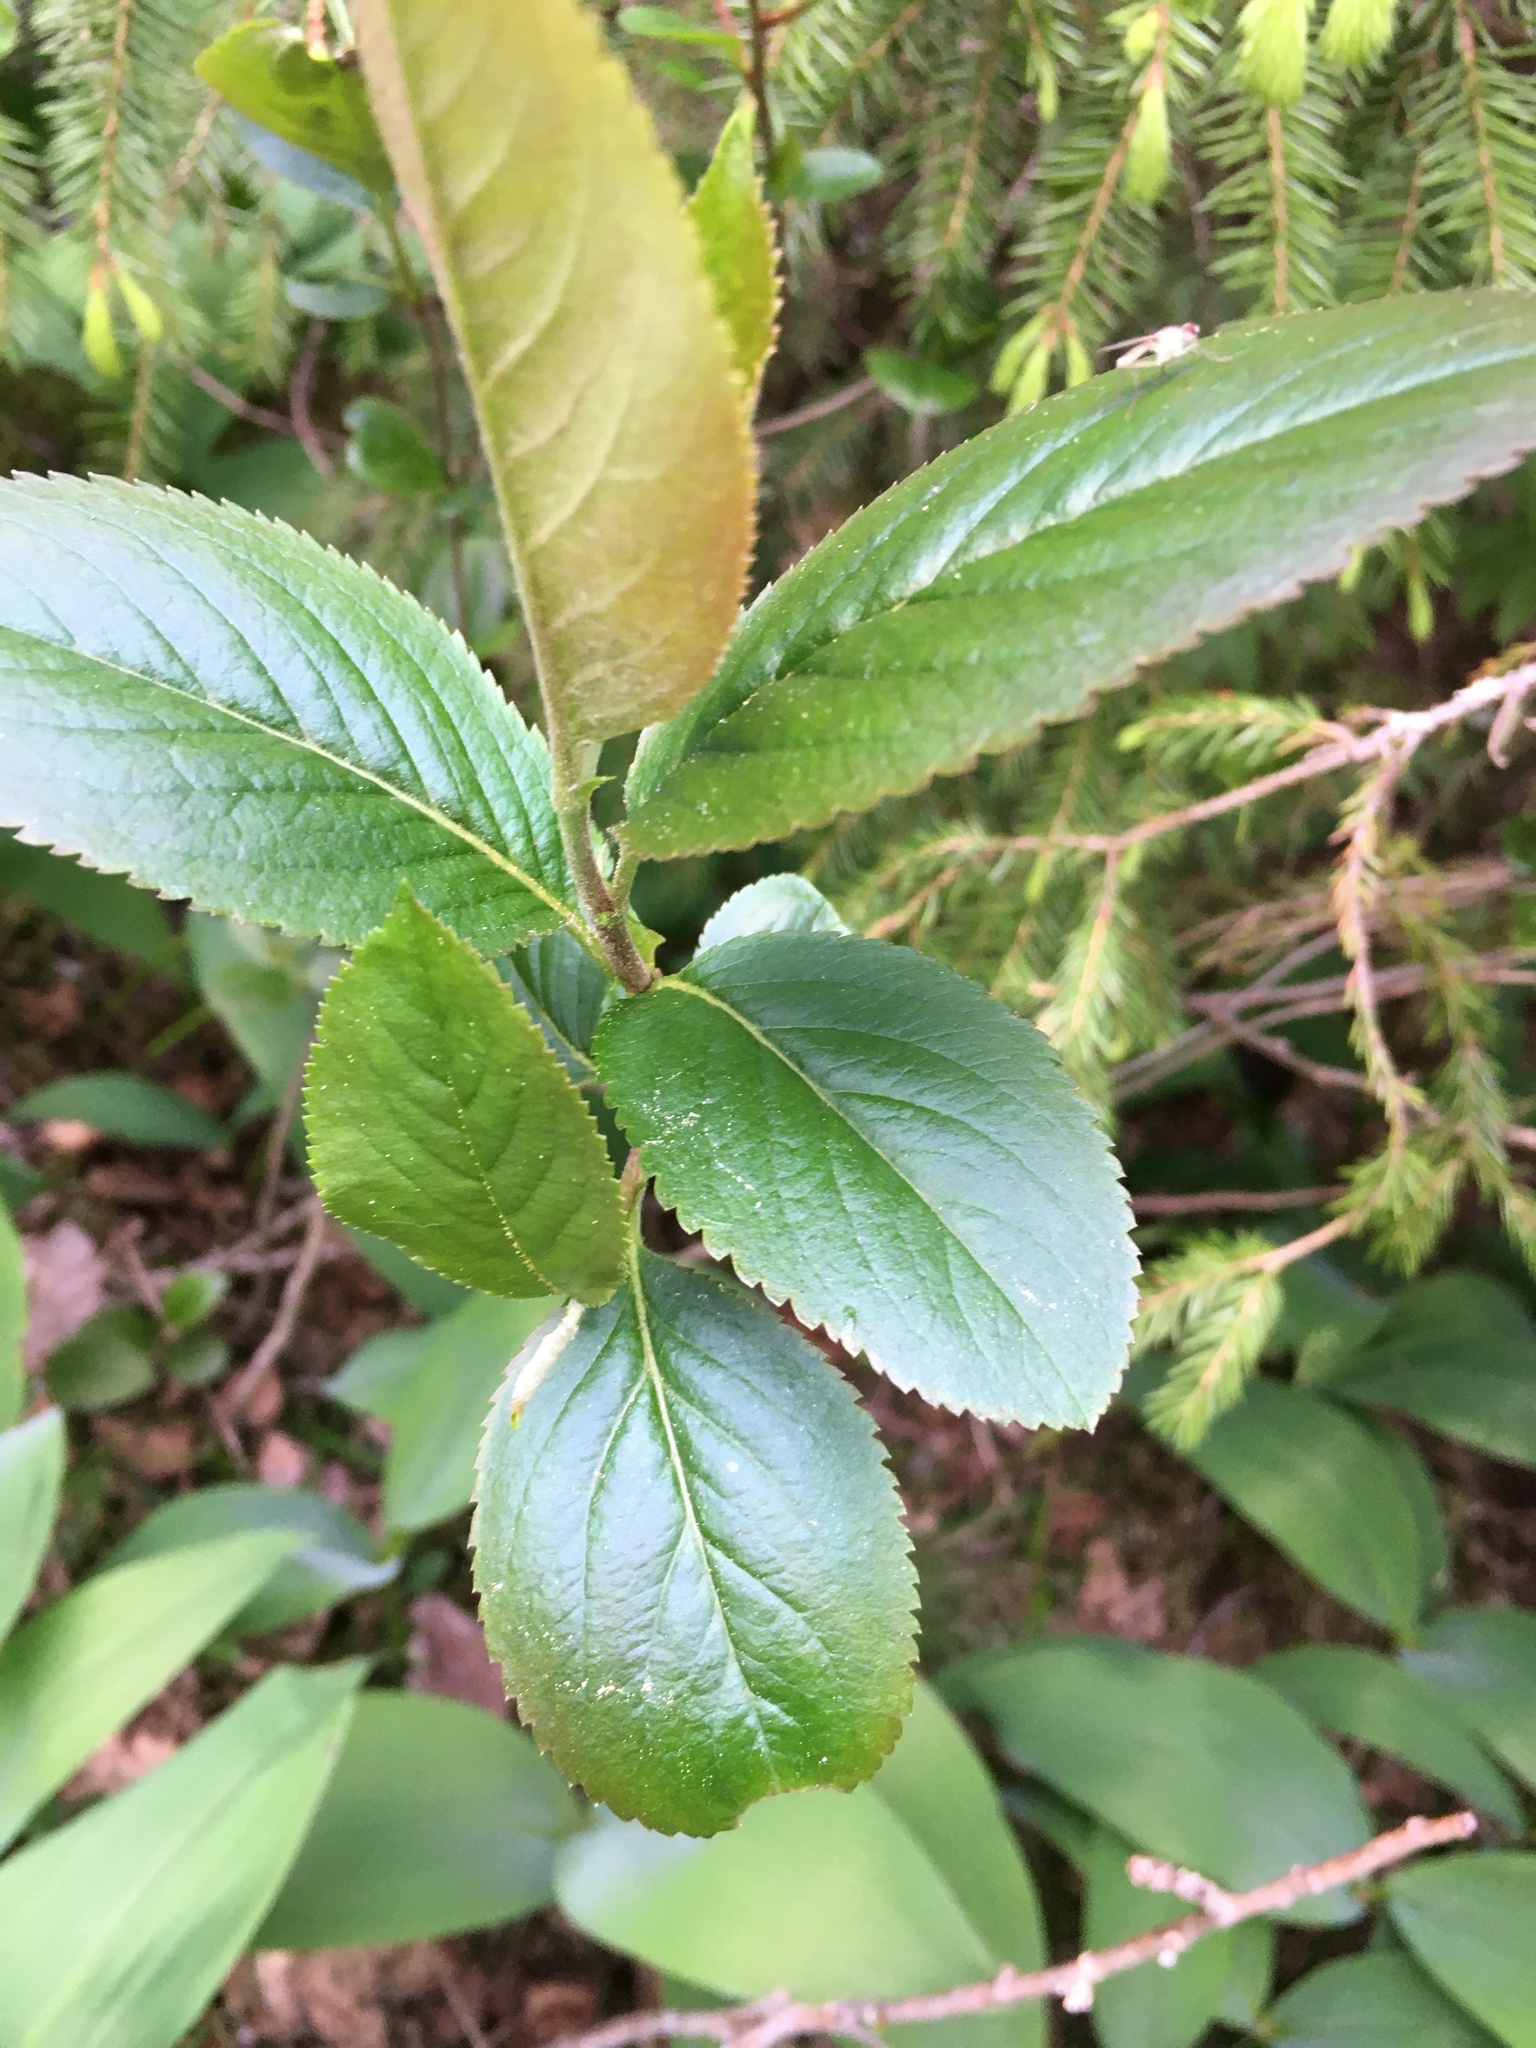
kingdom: Plantae
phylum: Tracheophyta
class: Magnoliopsida
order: Rosales
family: Rosaceae
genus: Sorbaronia
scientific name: Sorbaronia arsenii
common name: Arsène's mountain-ash
